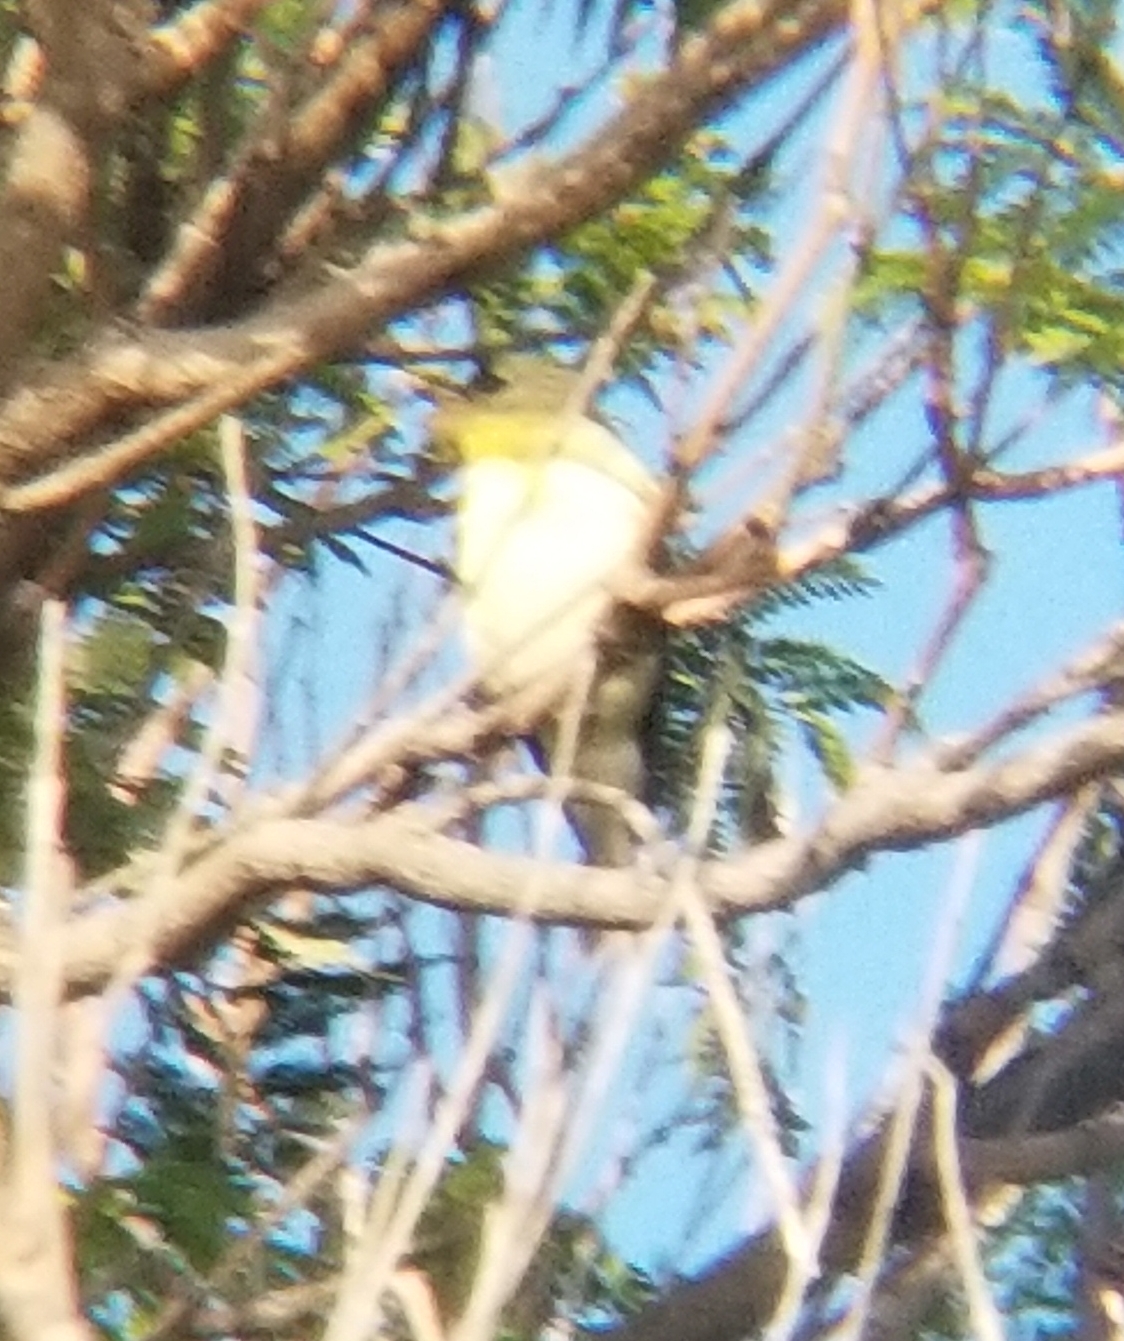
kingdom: Animalia
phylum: Chordata
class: Aves
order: Passeriformes
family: Fringillidae
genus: Spinus
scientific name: Spinus tristis
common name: American goldfinch
